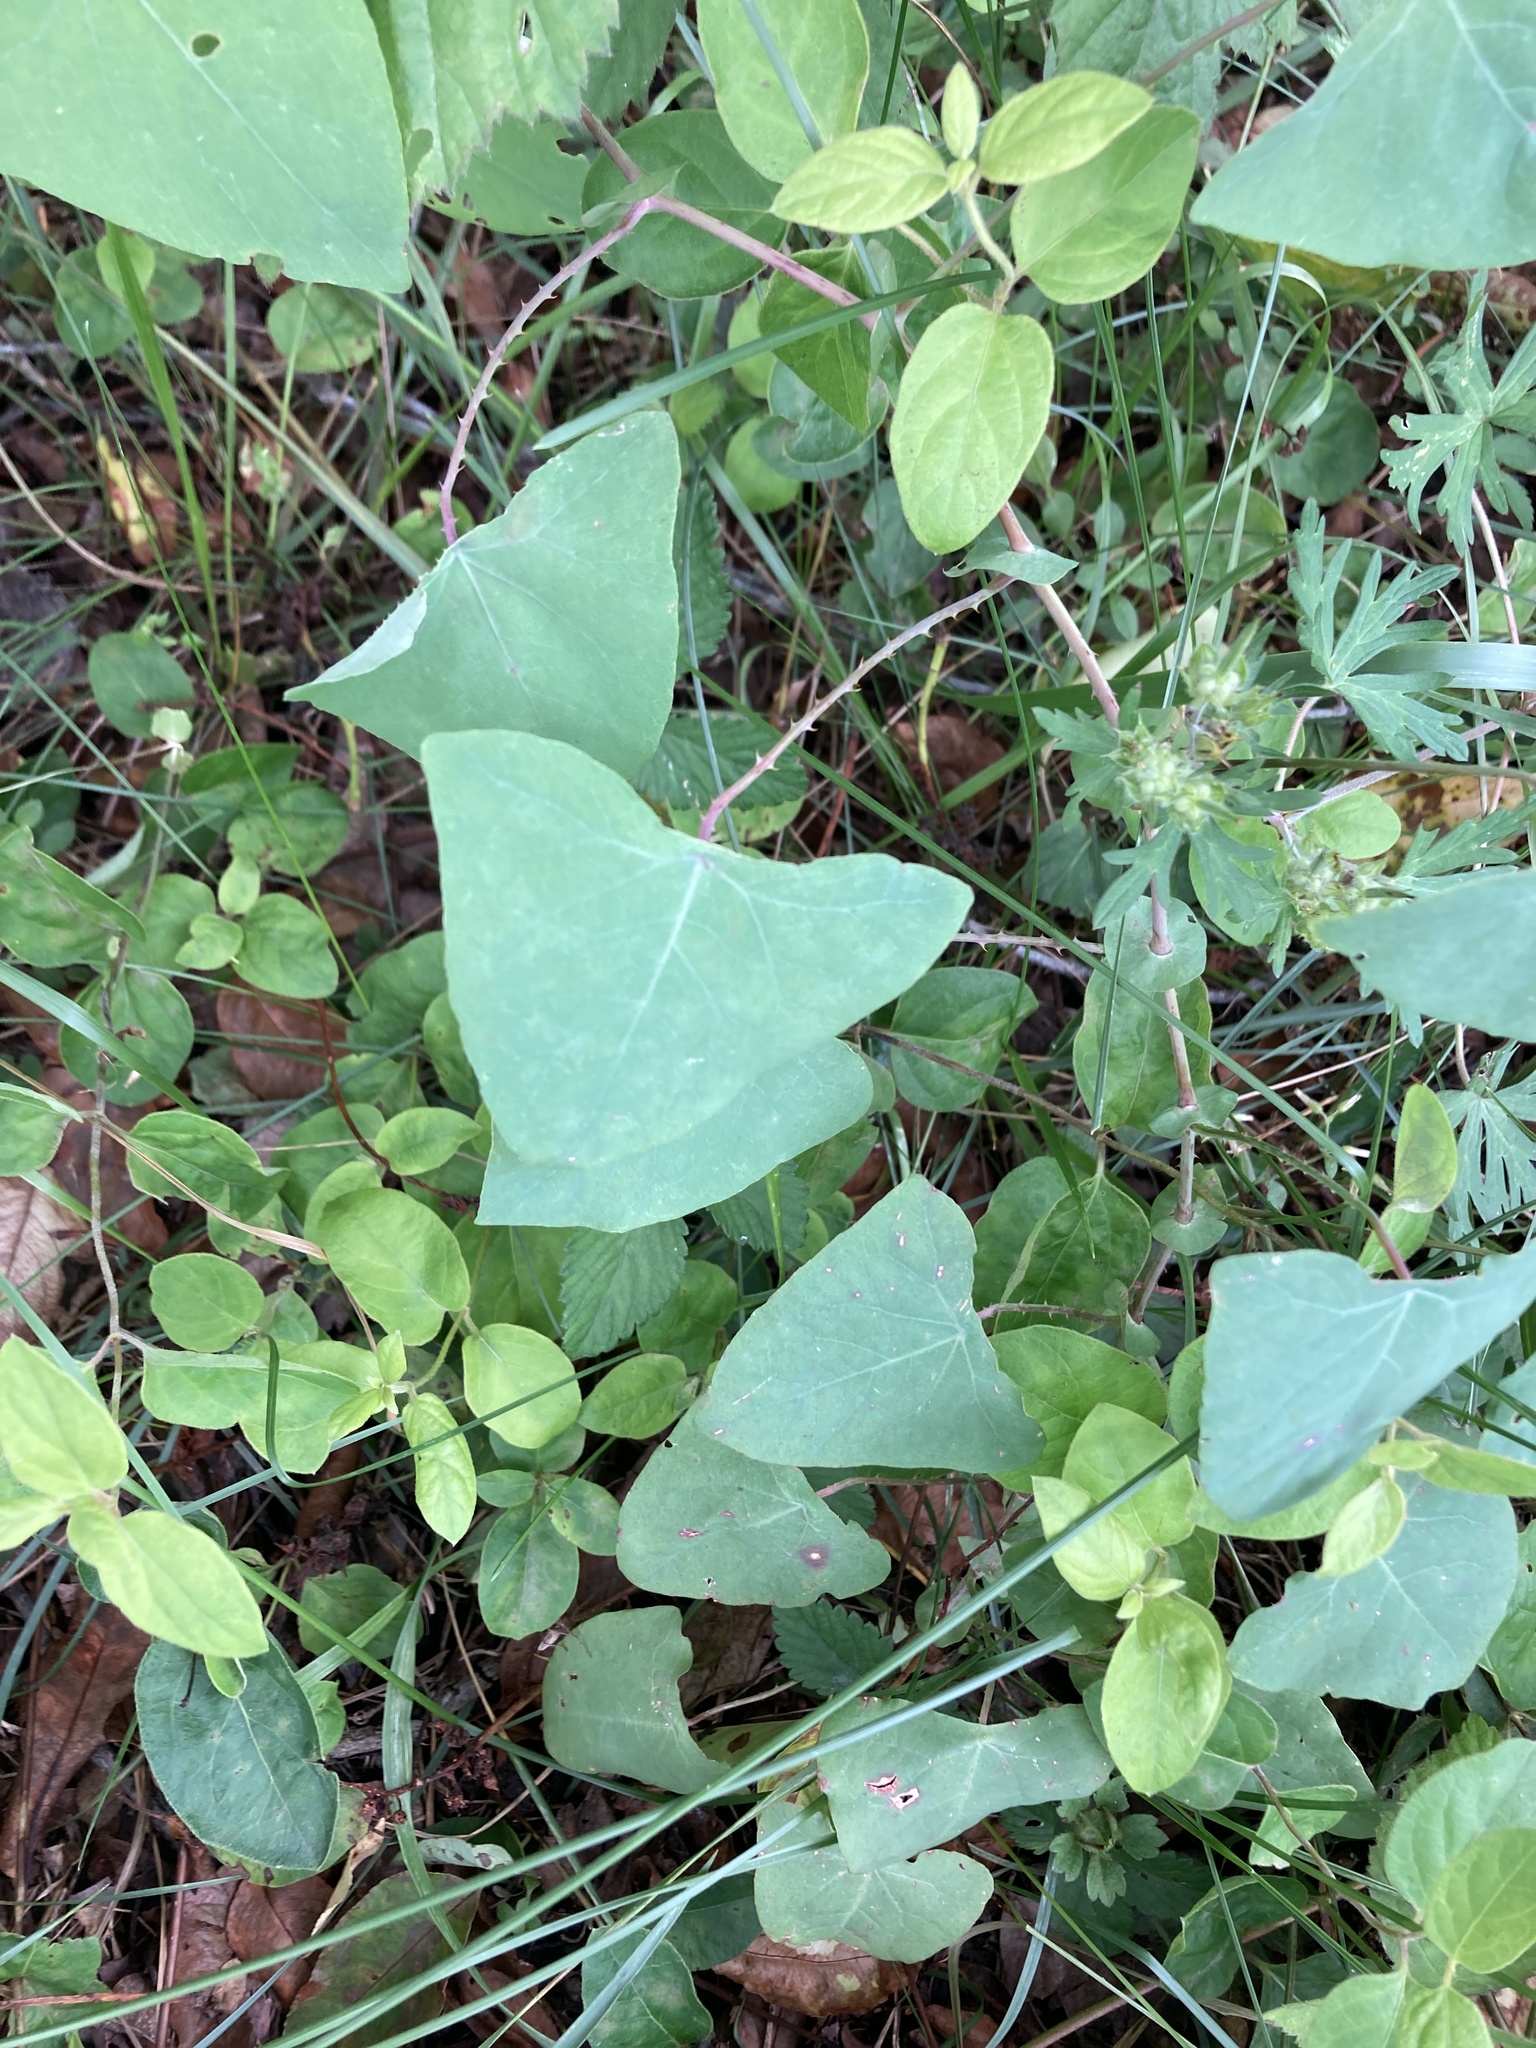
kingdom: Plantae
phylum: Tracheophyta
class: Magnoliopsida
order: Caryophyllales
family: Polygonaceae
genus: Persicaria
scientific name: Persicaria perfoliata
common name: Asiatic tearthumb
